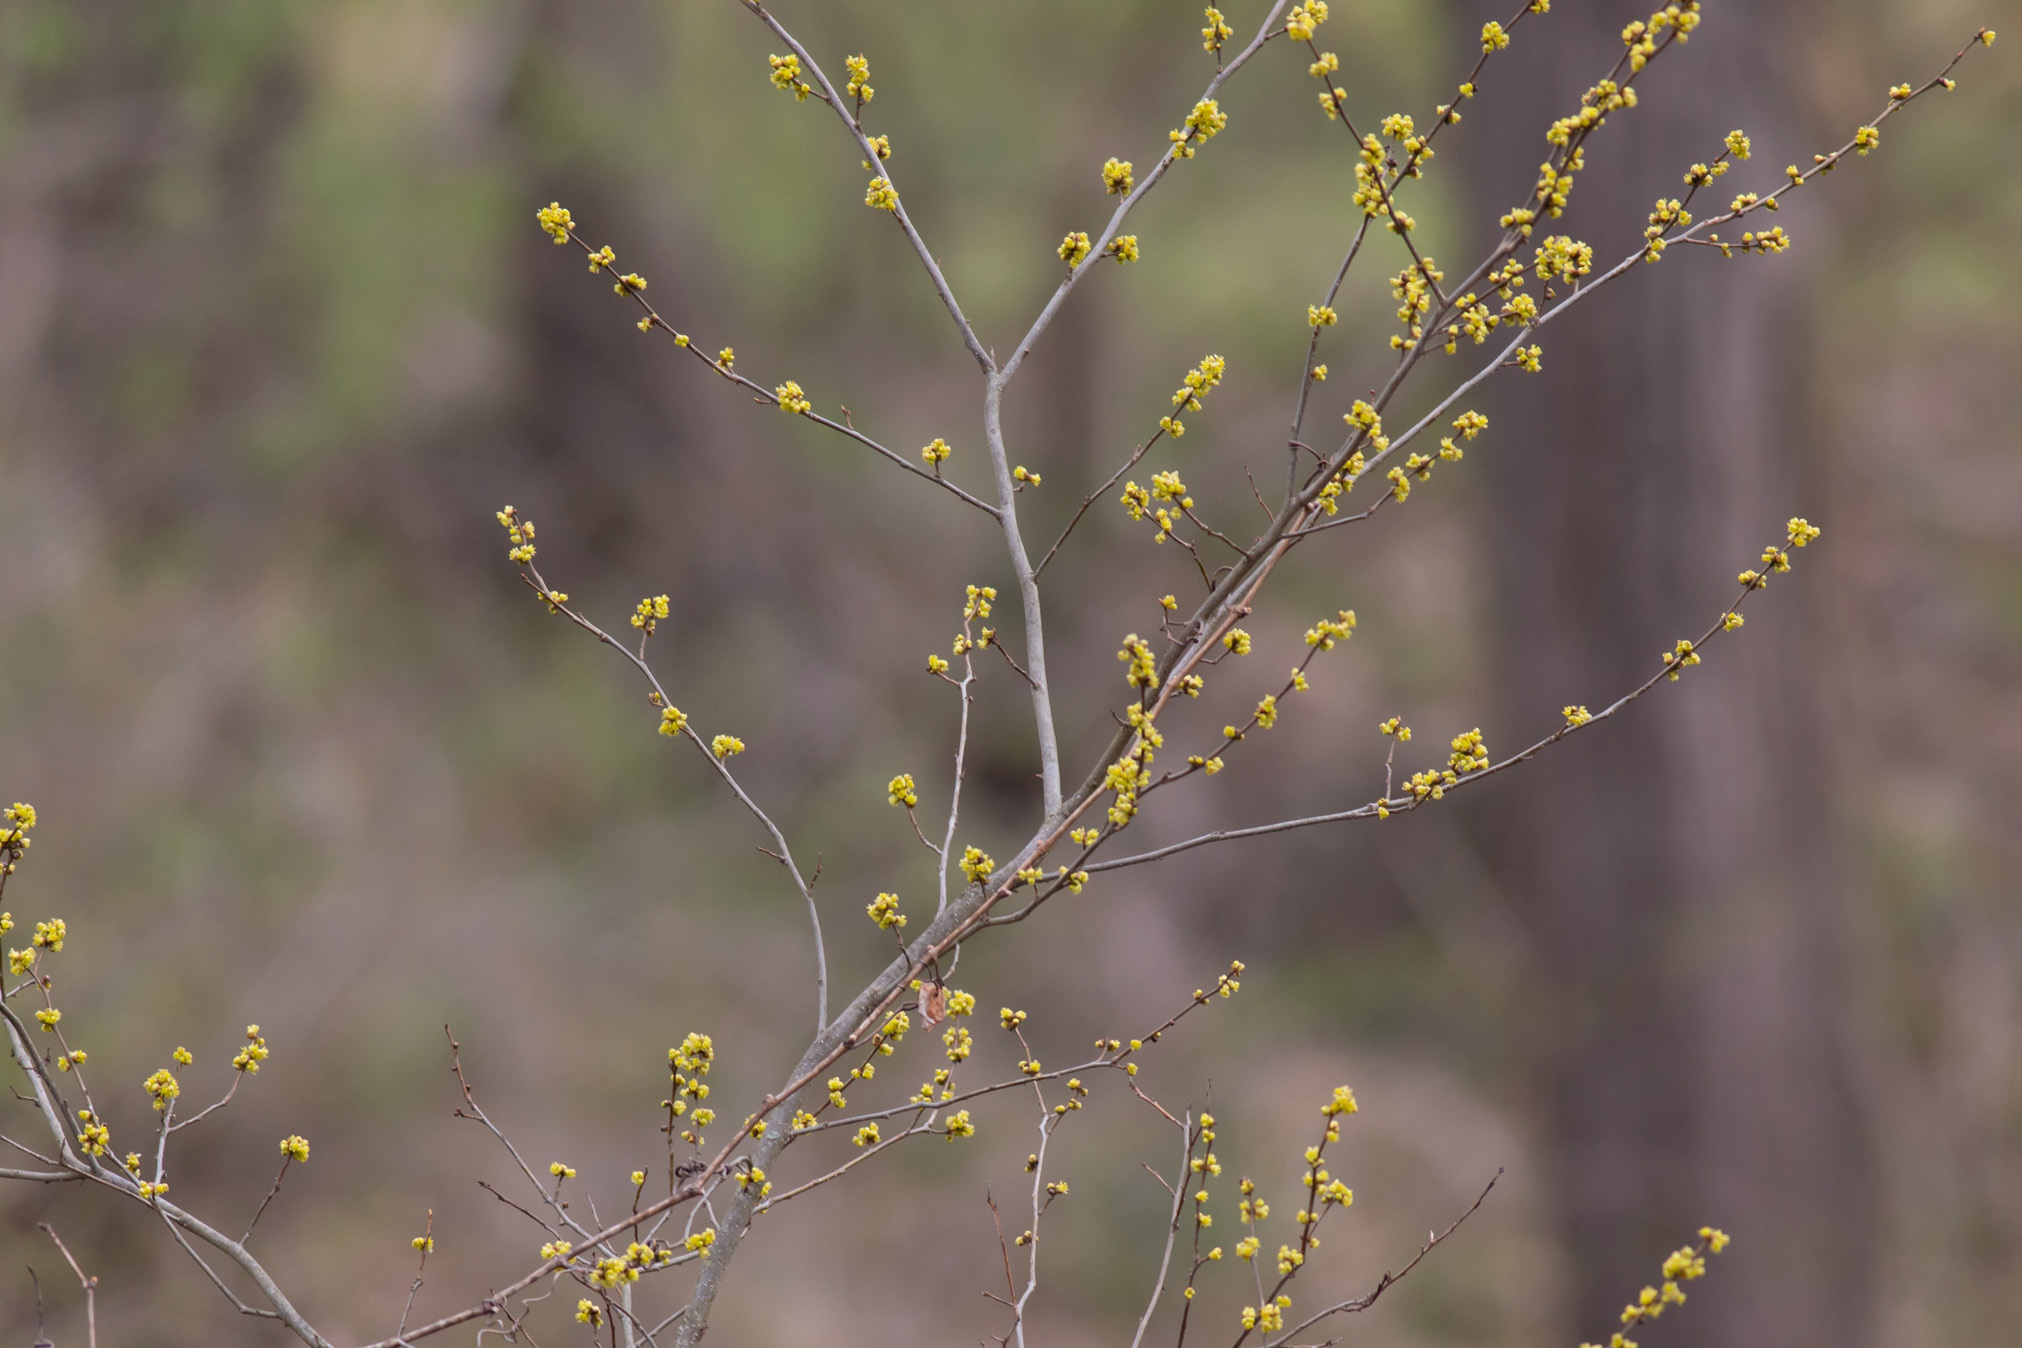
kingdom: Plantae
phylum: Tracheophyta
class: Magnoliopsida
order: Laurales
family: Lauraceae
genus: Lindera
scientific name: Lindera benzoin
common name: Spicebush
